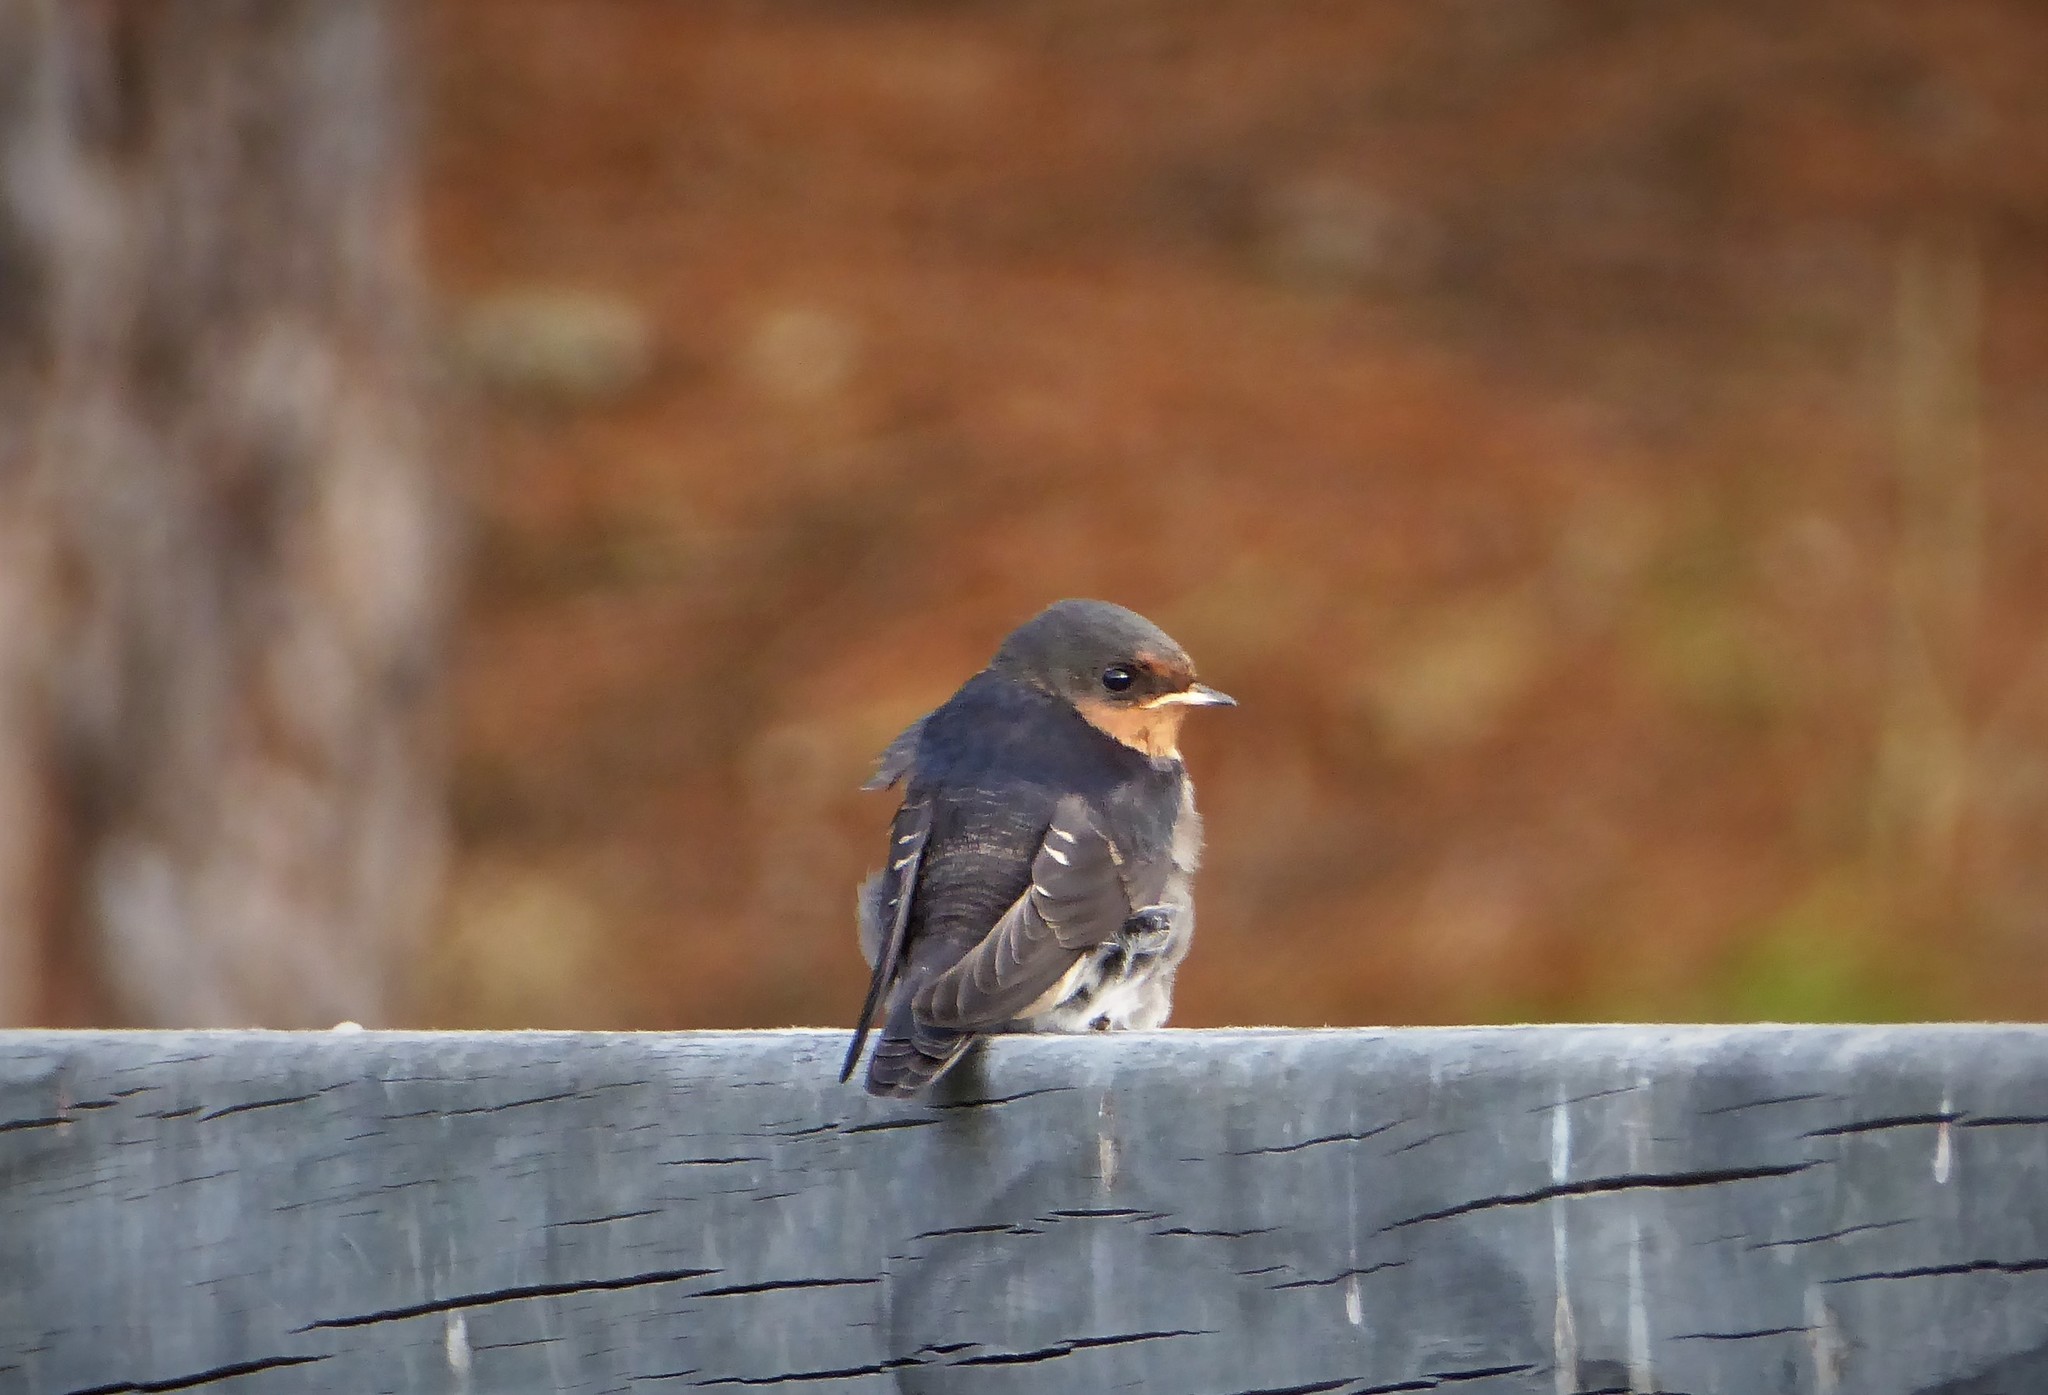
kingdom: Animalia
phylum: Chordata
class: Aves
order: Passeriformes
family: Hirundinidae
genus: Hirundo
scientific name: Hirundo neoxena
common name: Welcome swallow
